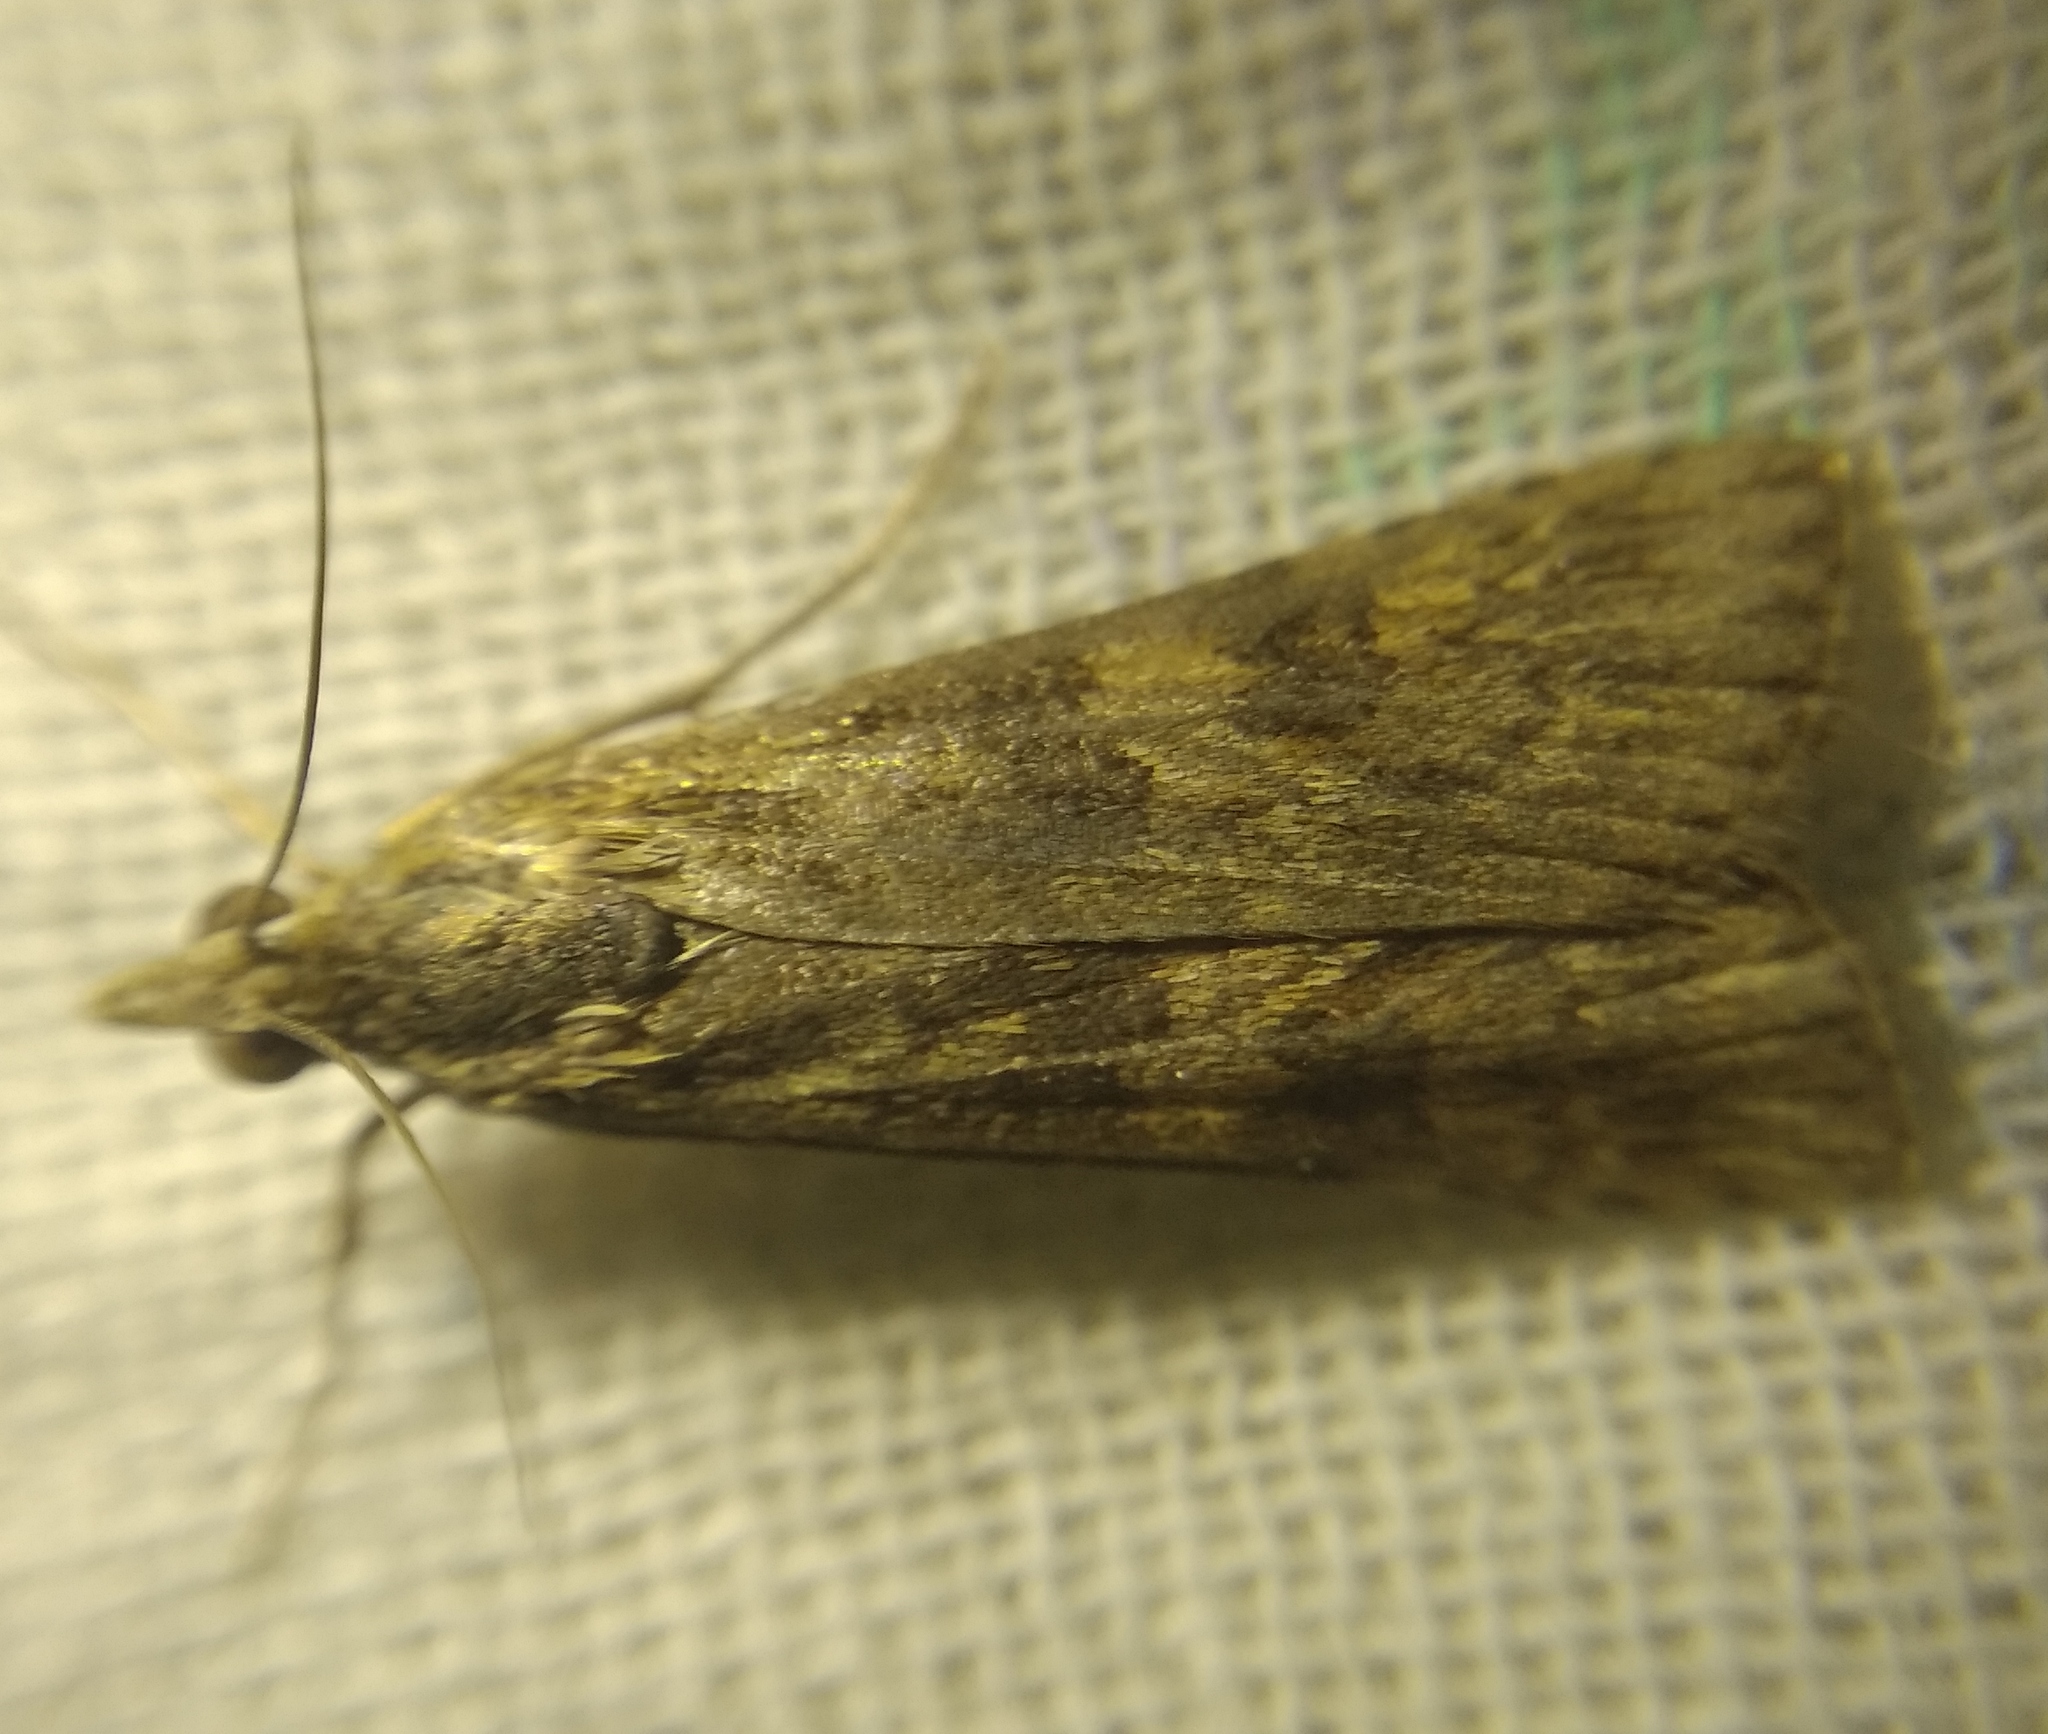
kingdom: Animalia
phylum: Arthropoda
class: Insecta
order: Lepidoptera
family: Crambidae
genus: Nomophila
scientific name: Nomophila noctuella
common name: Rush veneer
